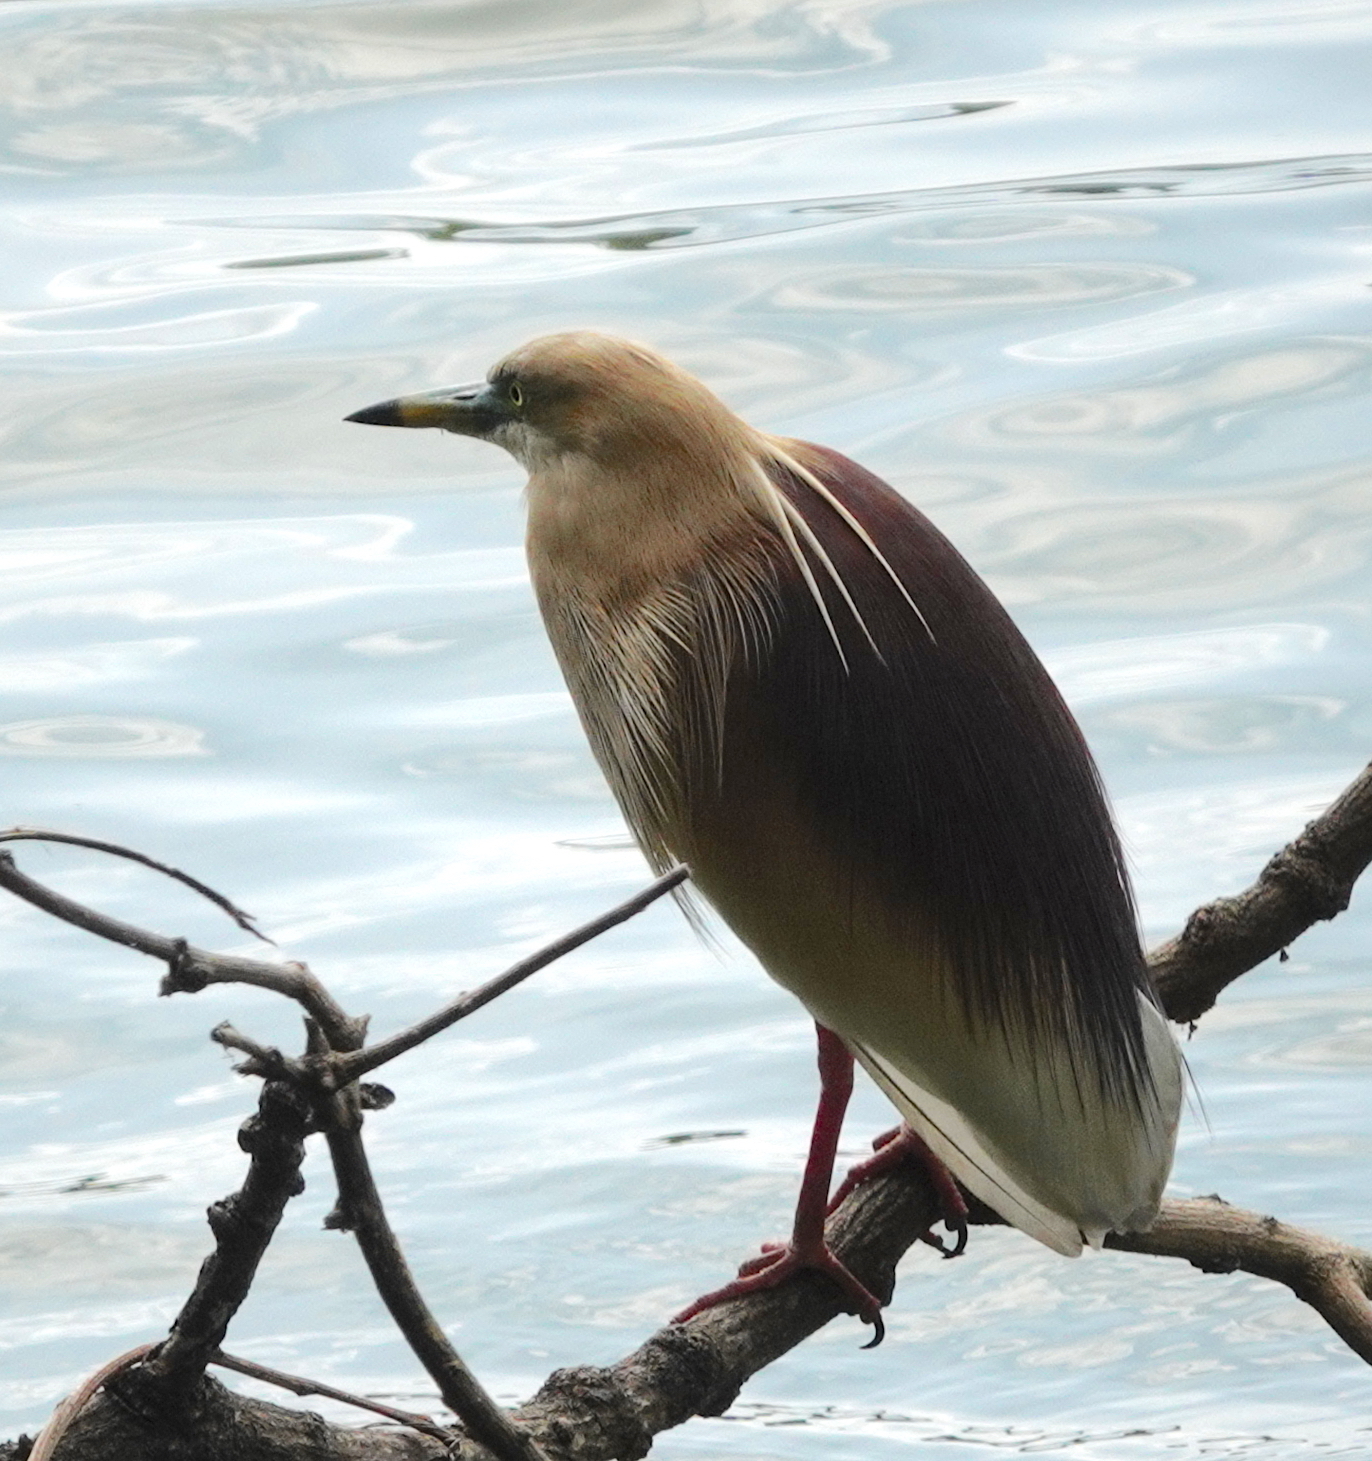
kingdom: Animalia
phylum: Chordata
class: Aves
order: Pelecaniformes
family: Ardeidae
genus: Ardeola
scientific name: Ardeola grayii
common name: Indian pond heron
